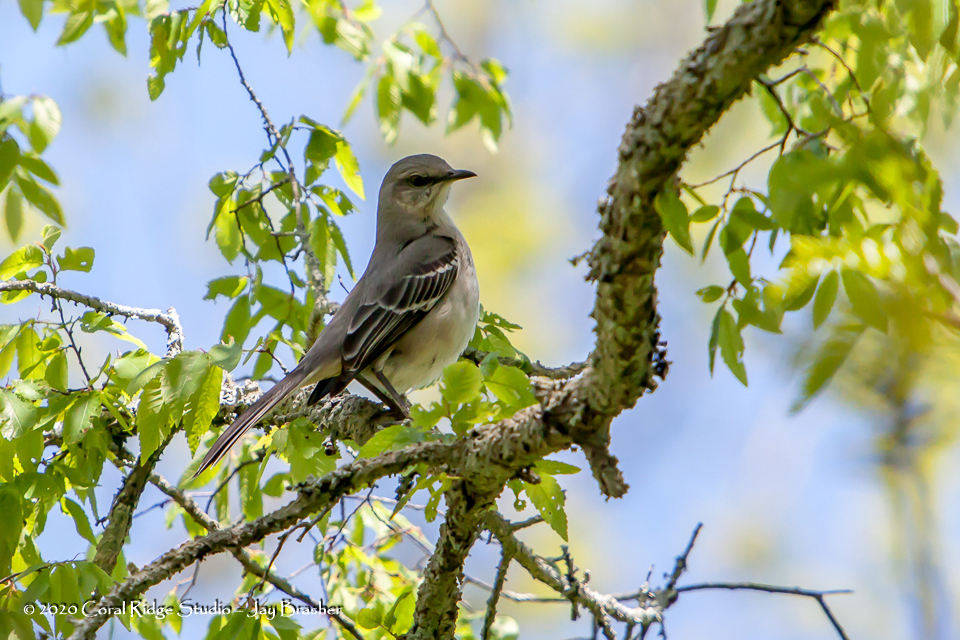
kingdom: Animalia
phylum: Chordata
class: Aves
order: Passeriformes
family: Mimidae
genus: Mimus
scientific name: Mimus polyglottos
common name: Northern mockingbird
